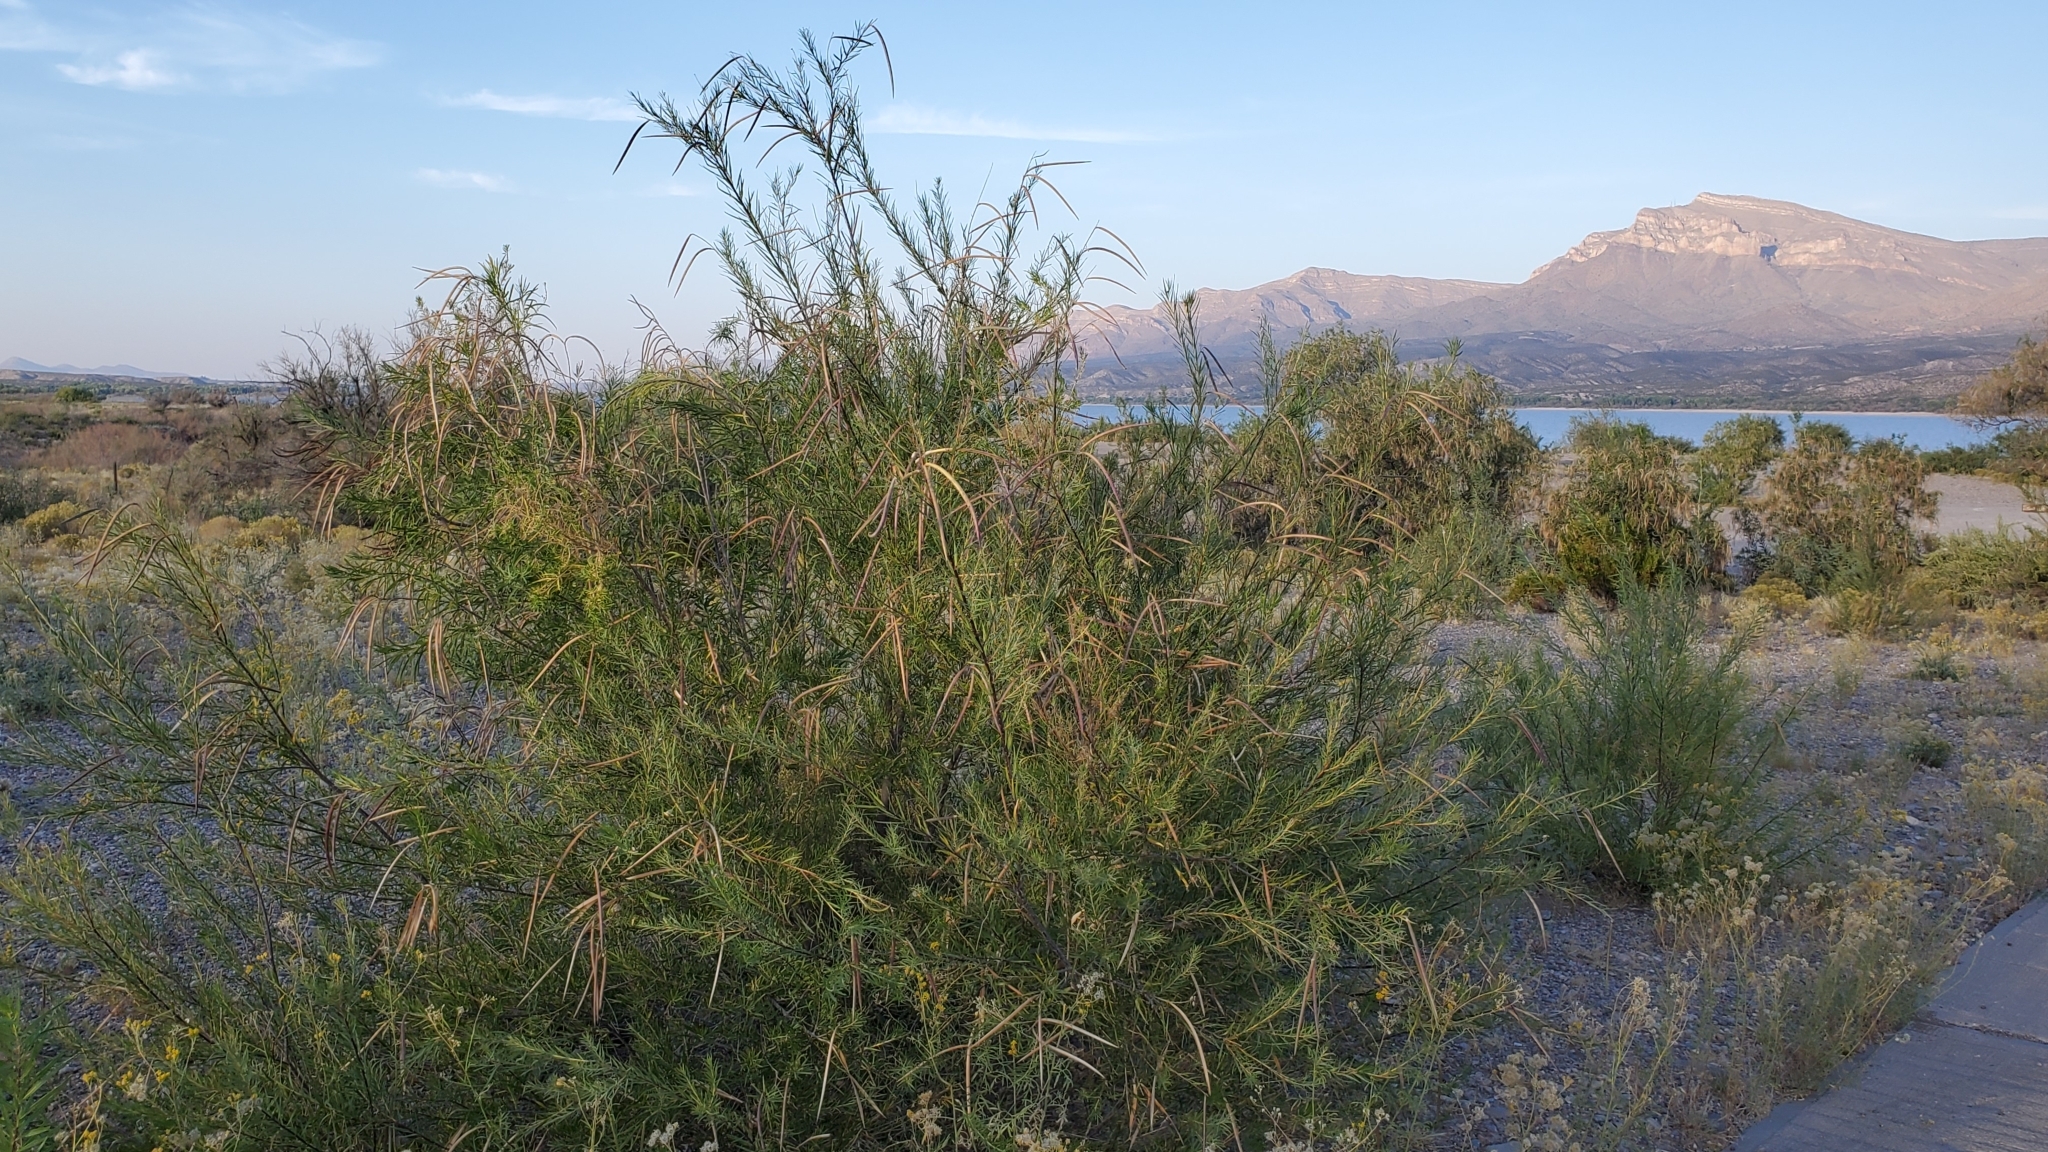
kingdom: Plantae
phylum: Tracheophyta
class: Magnoliopsida
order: Lamiales
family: Bignoniaceae
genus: Chilopsis
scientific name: Chilopsis linearis
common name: Desert-willow
